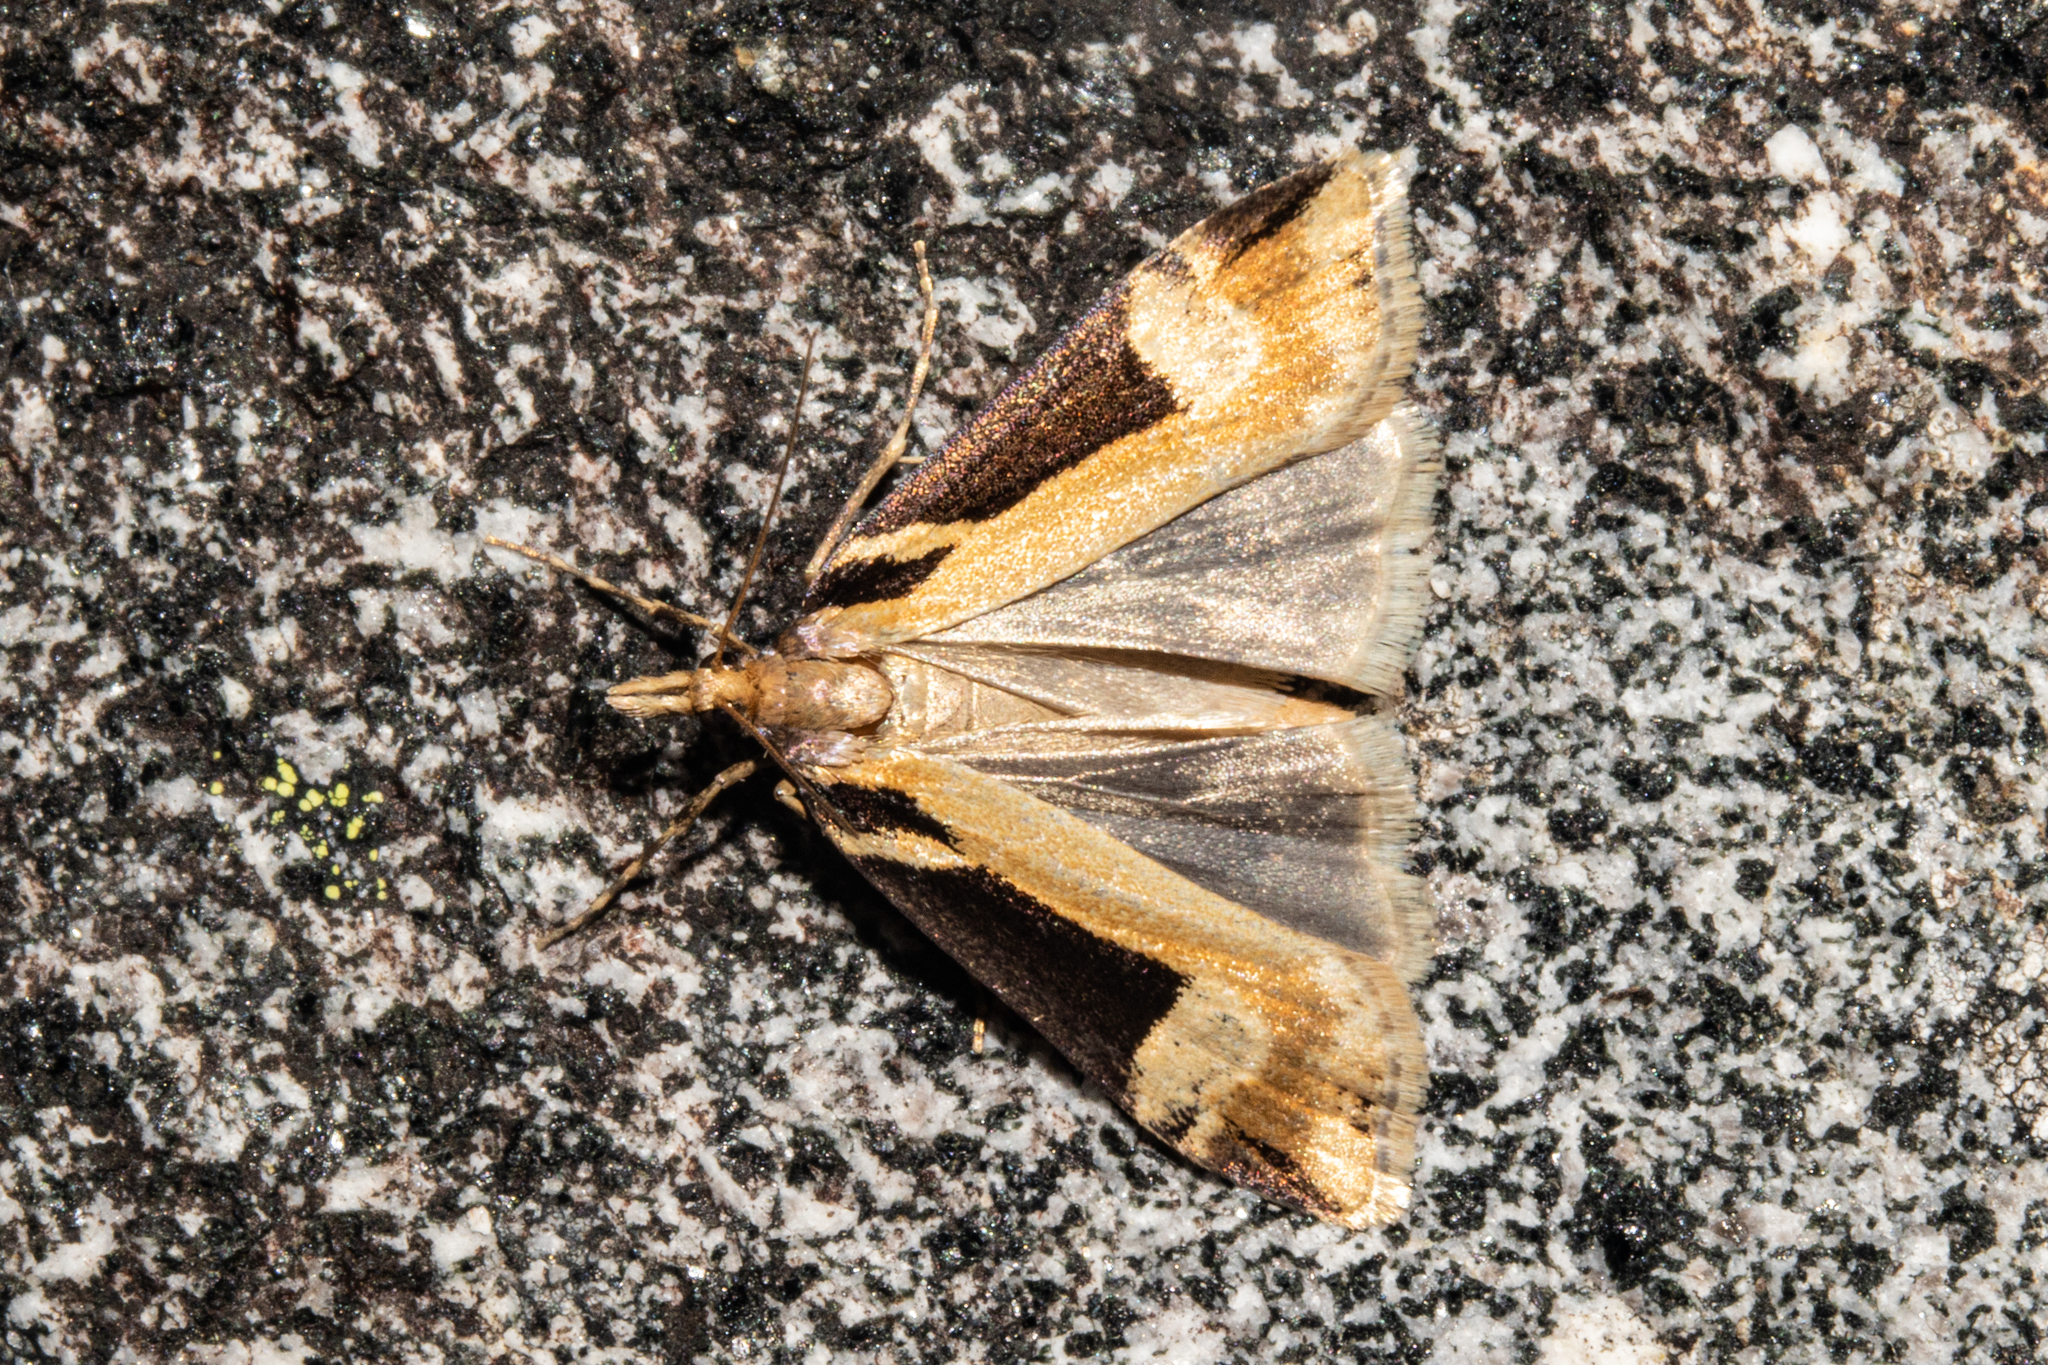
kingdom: Animalia
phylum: Arthropoda
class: Insecta
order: Lepidoptera
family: Crambidae
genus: Scoparia
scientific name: Scoparia trapezophora
